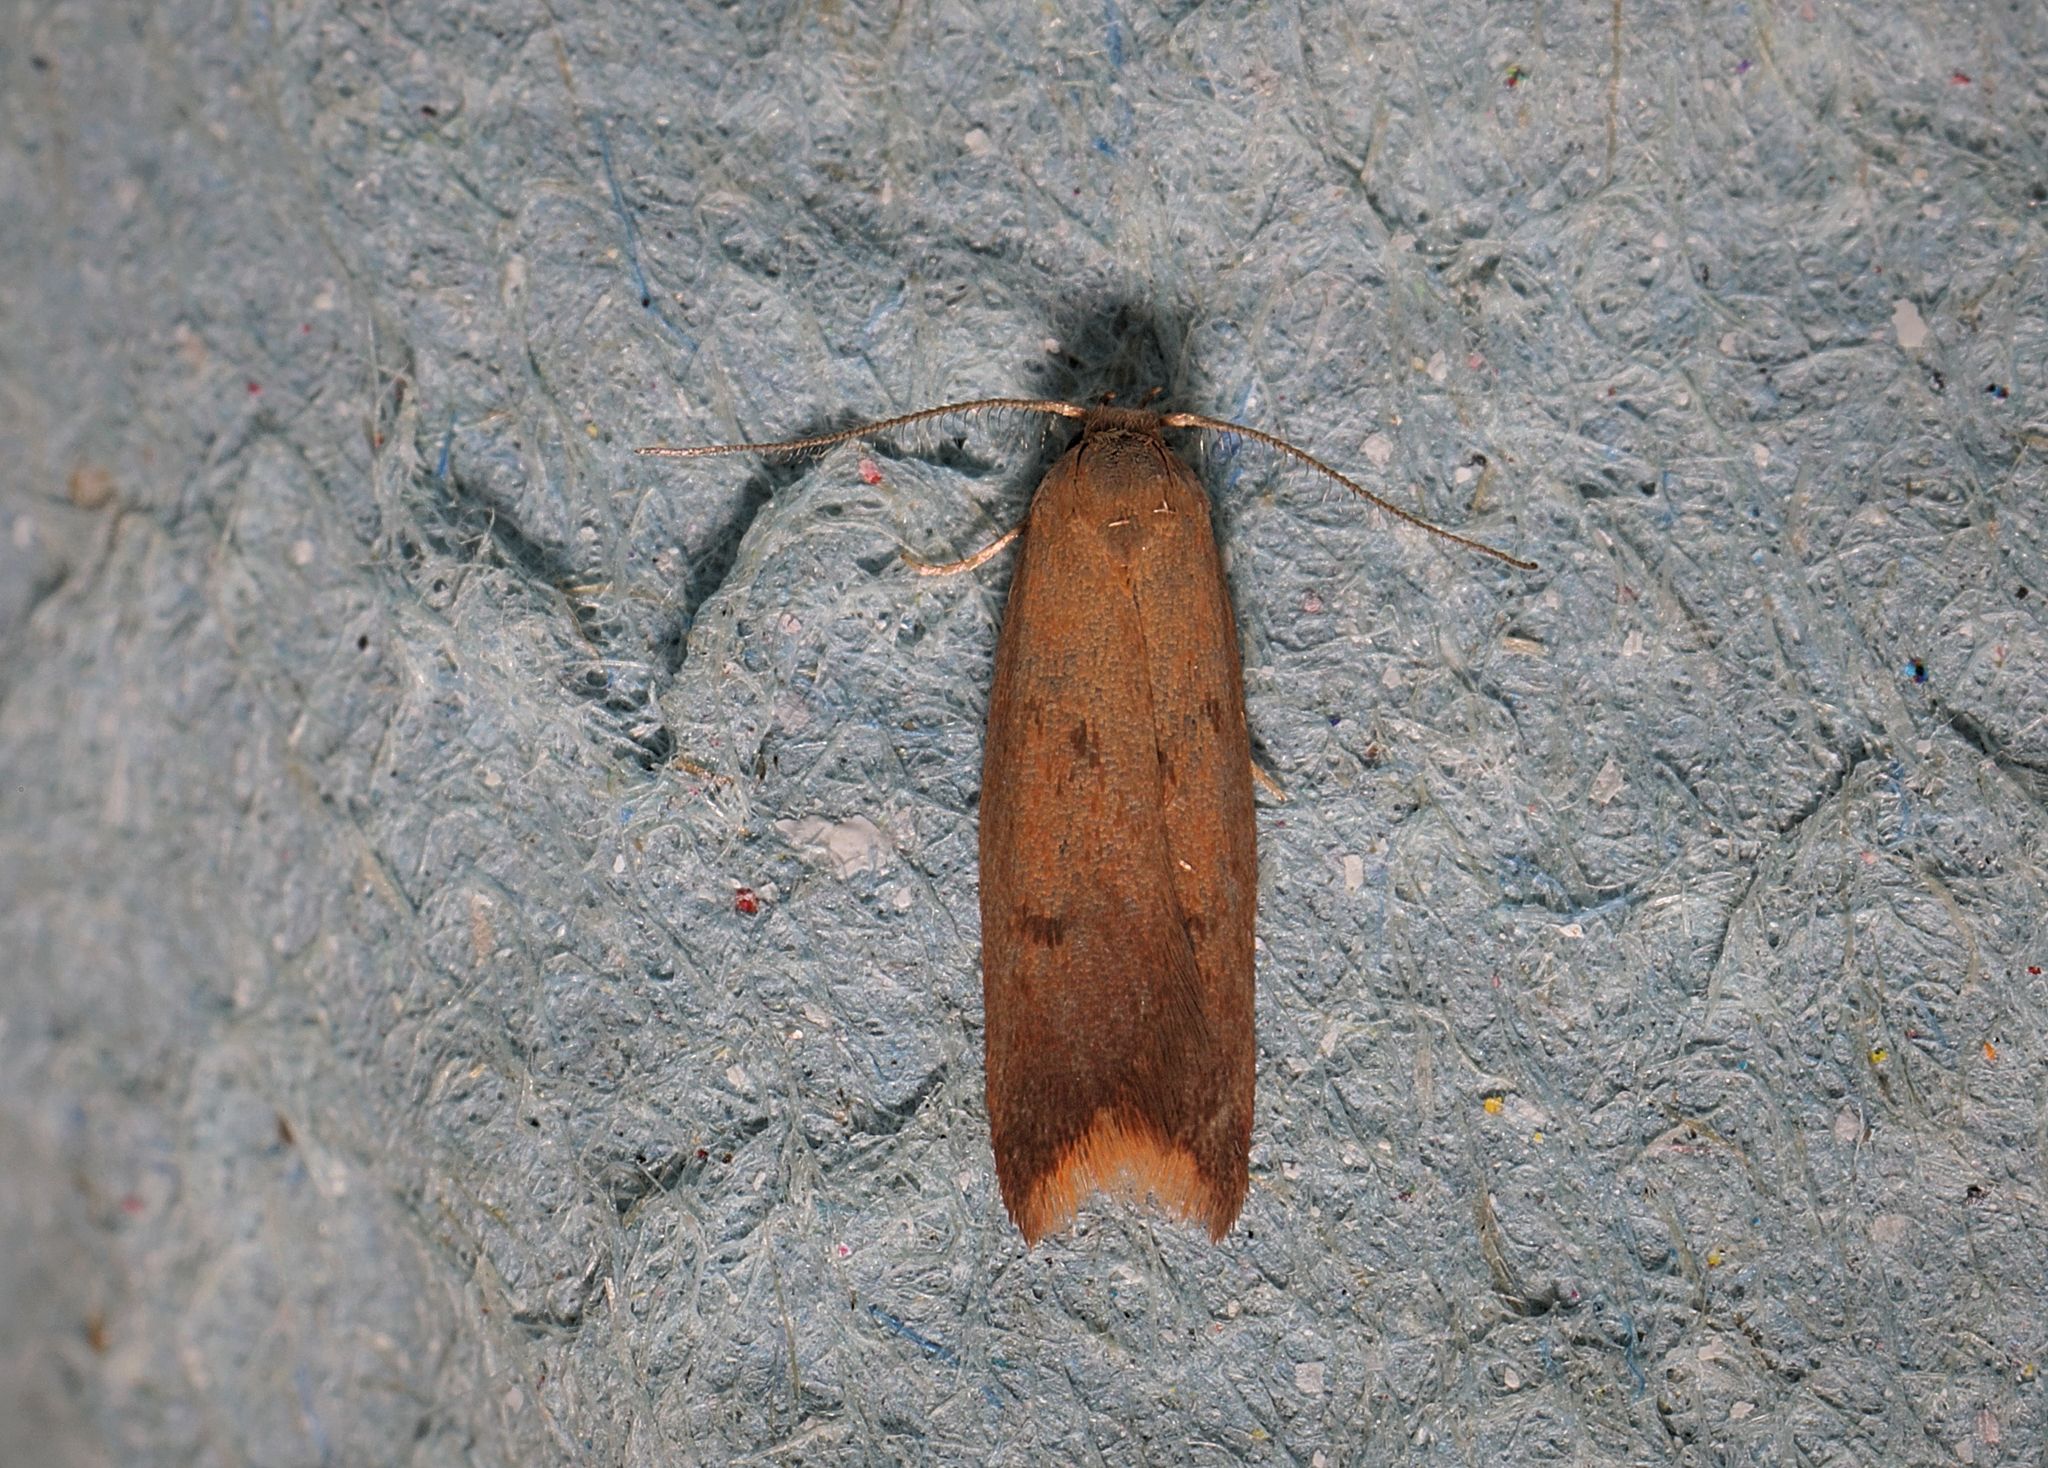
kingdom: Animalia
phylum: Arthropoda
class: Insecta
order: Lepidoptera
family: Oecophoridae
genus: Tachystola
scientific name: Tachystola acroxantha
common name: Ruddy streak
